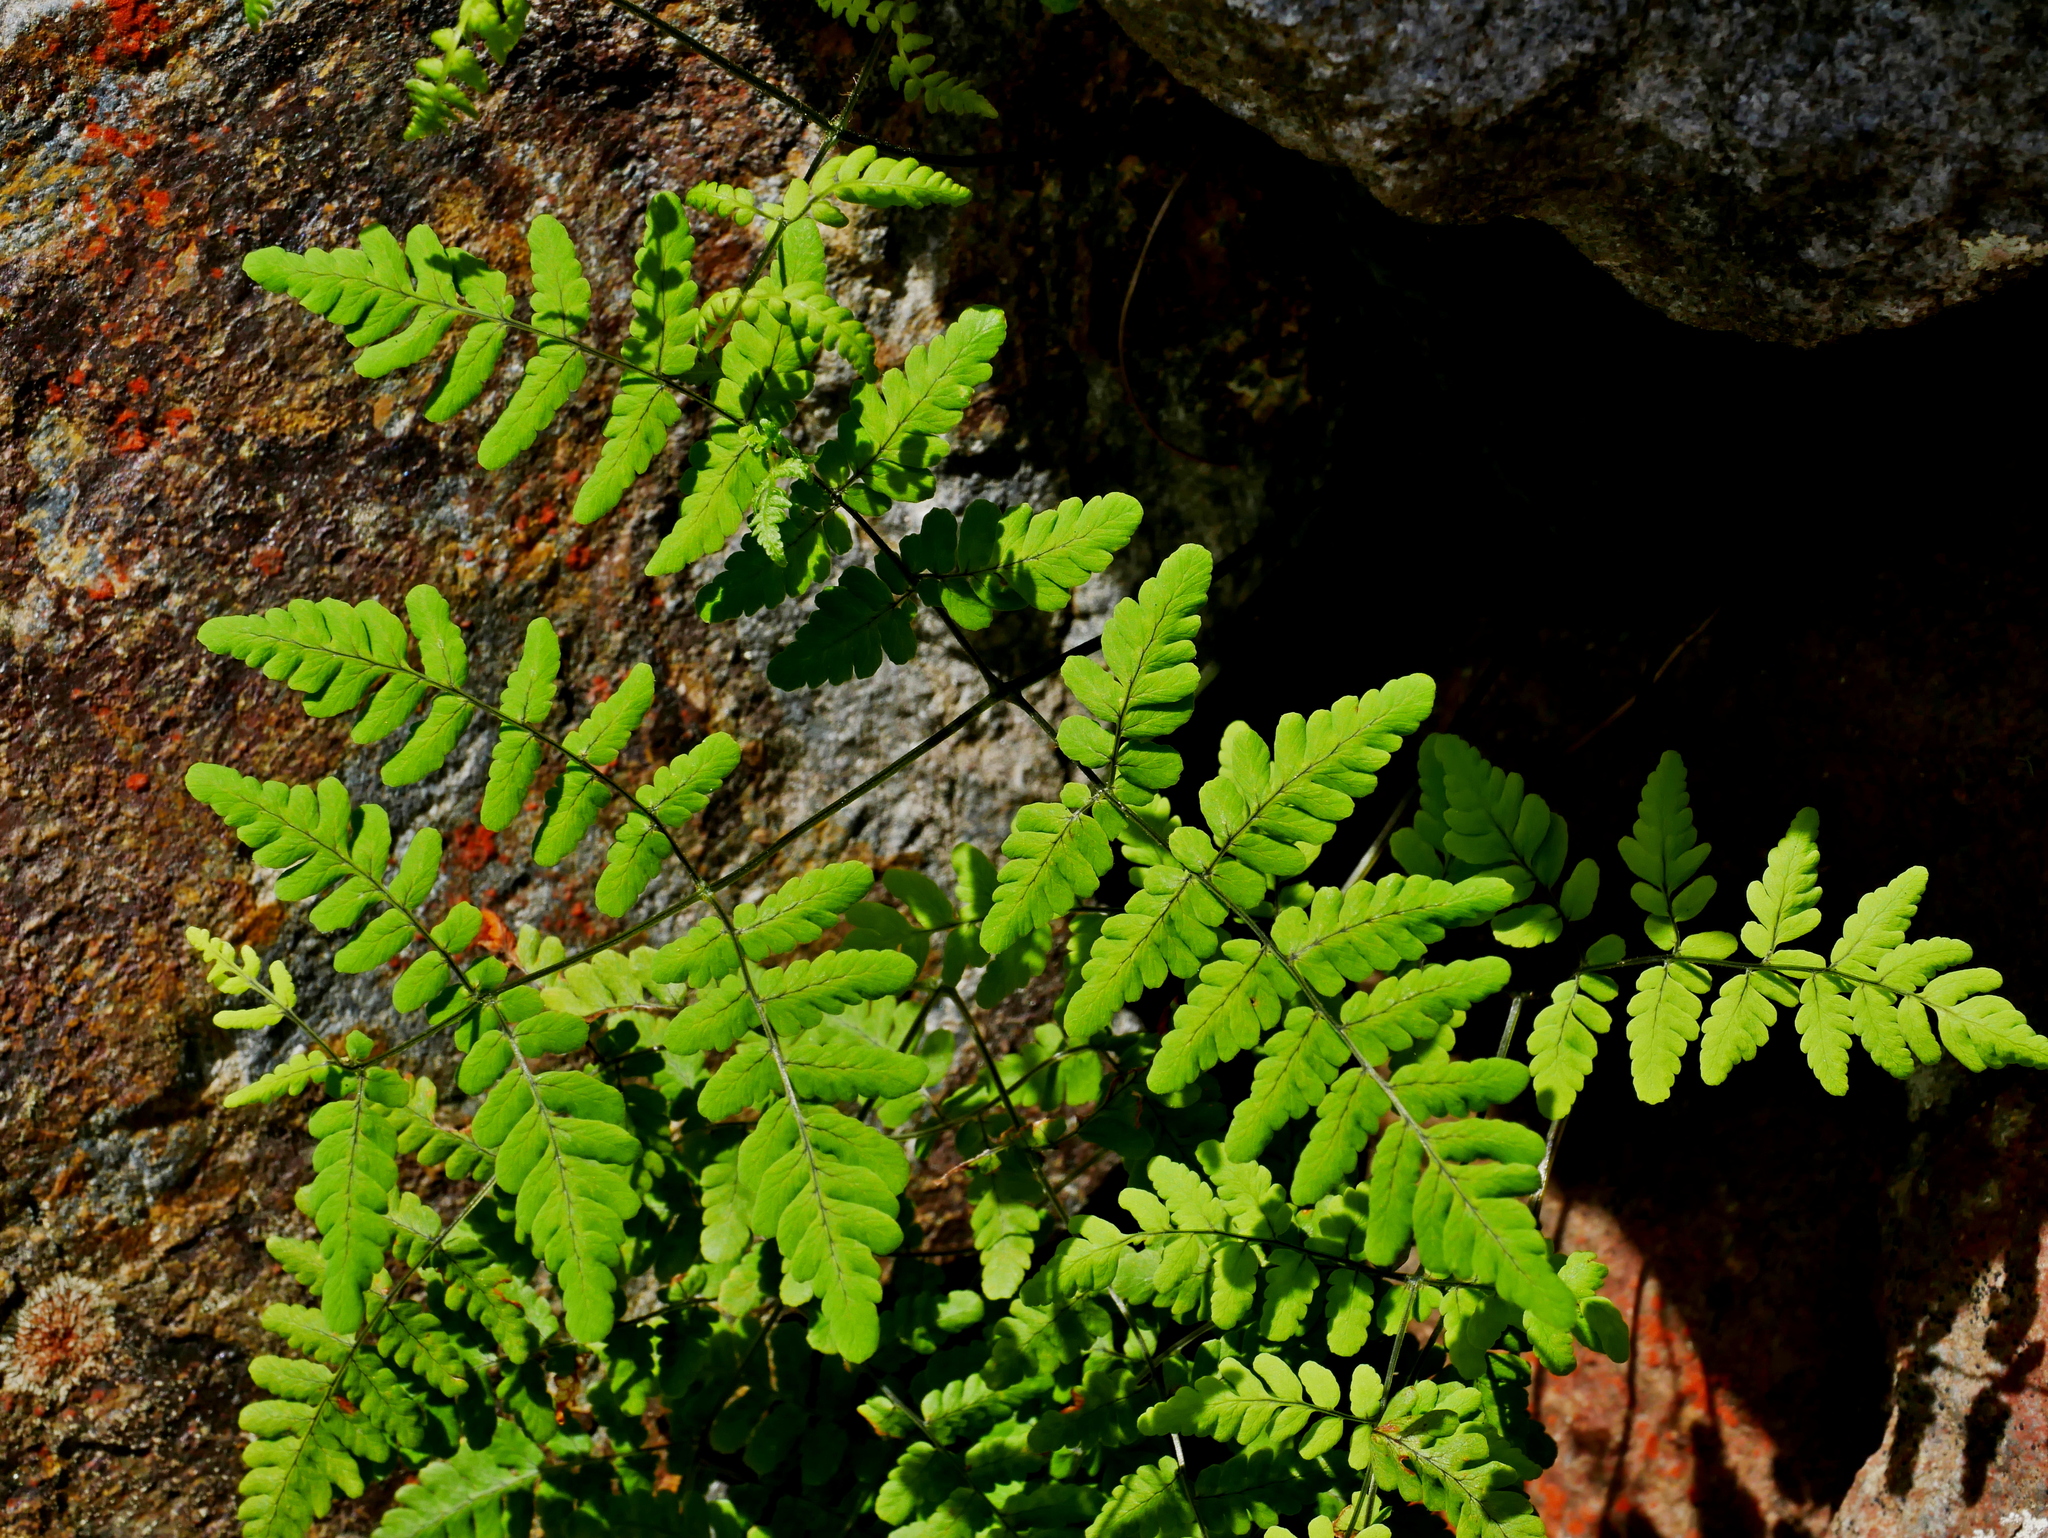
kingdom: Plantae
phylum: Tracheophyta
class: Polypodiopsida
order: Polypodiales
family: Cystopteridaceae
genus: Gymnocarpium
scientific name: Gymnocarpium remotepinnatum
